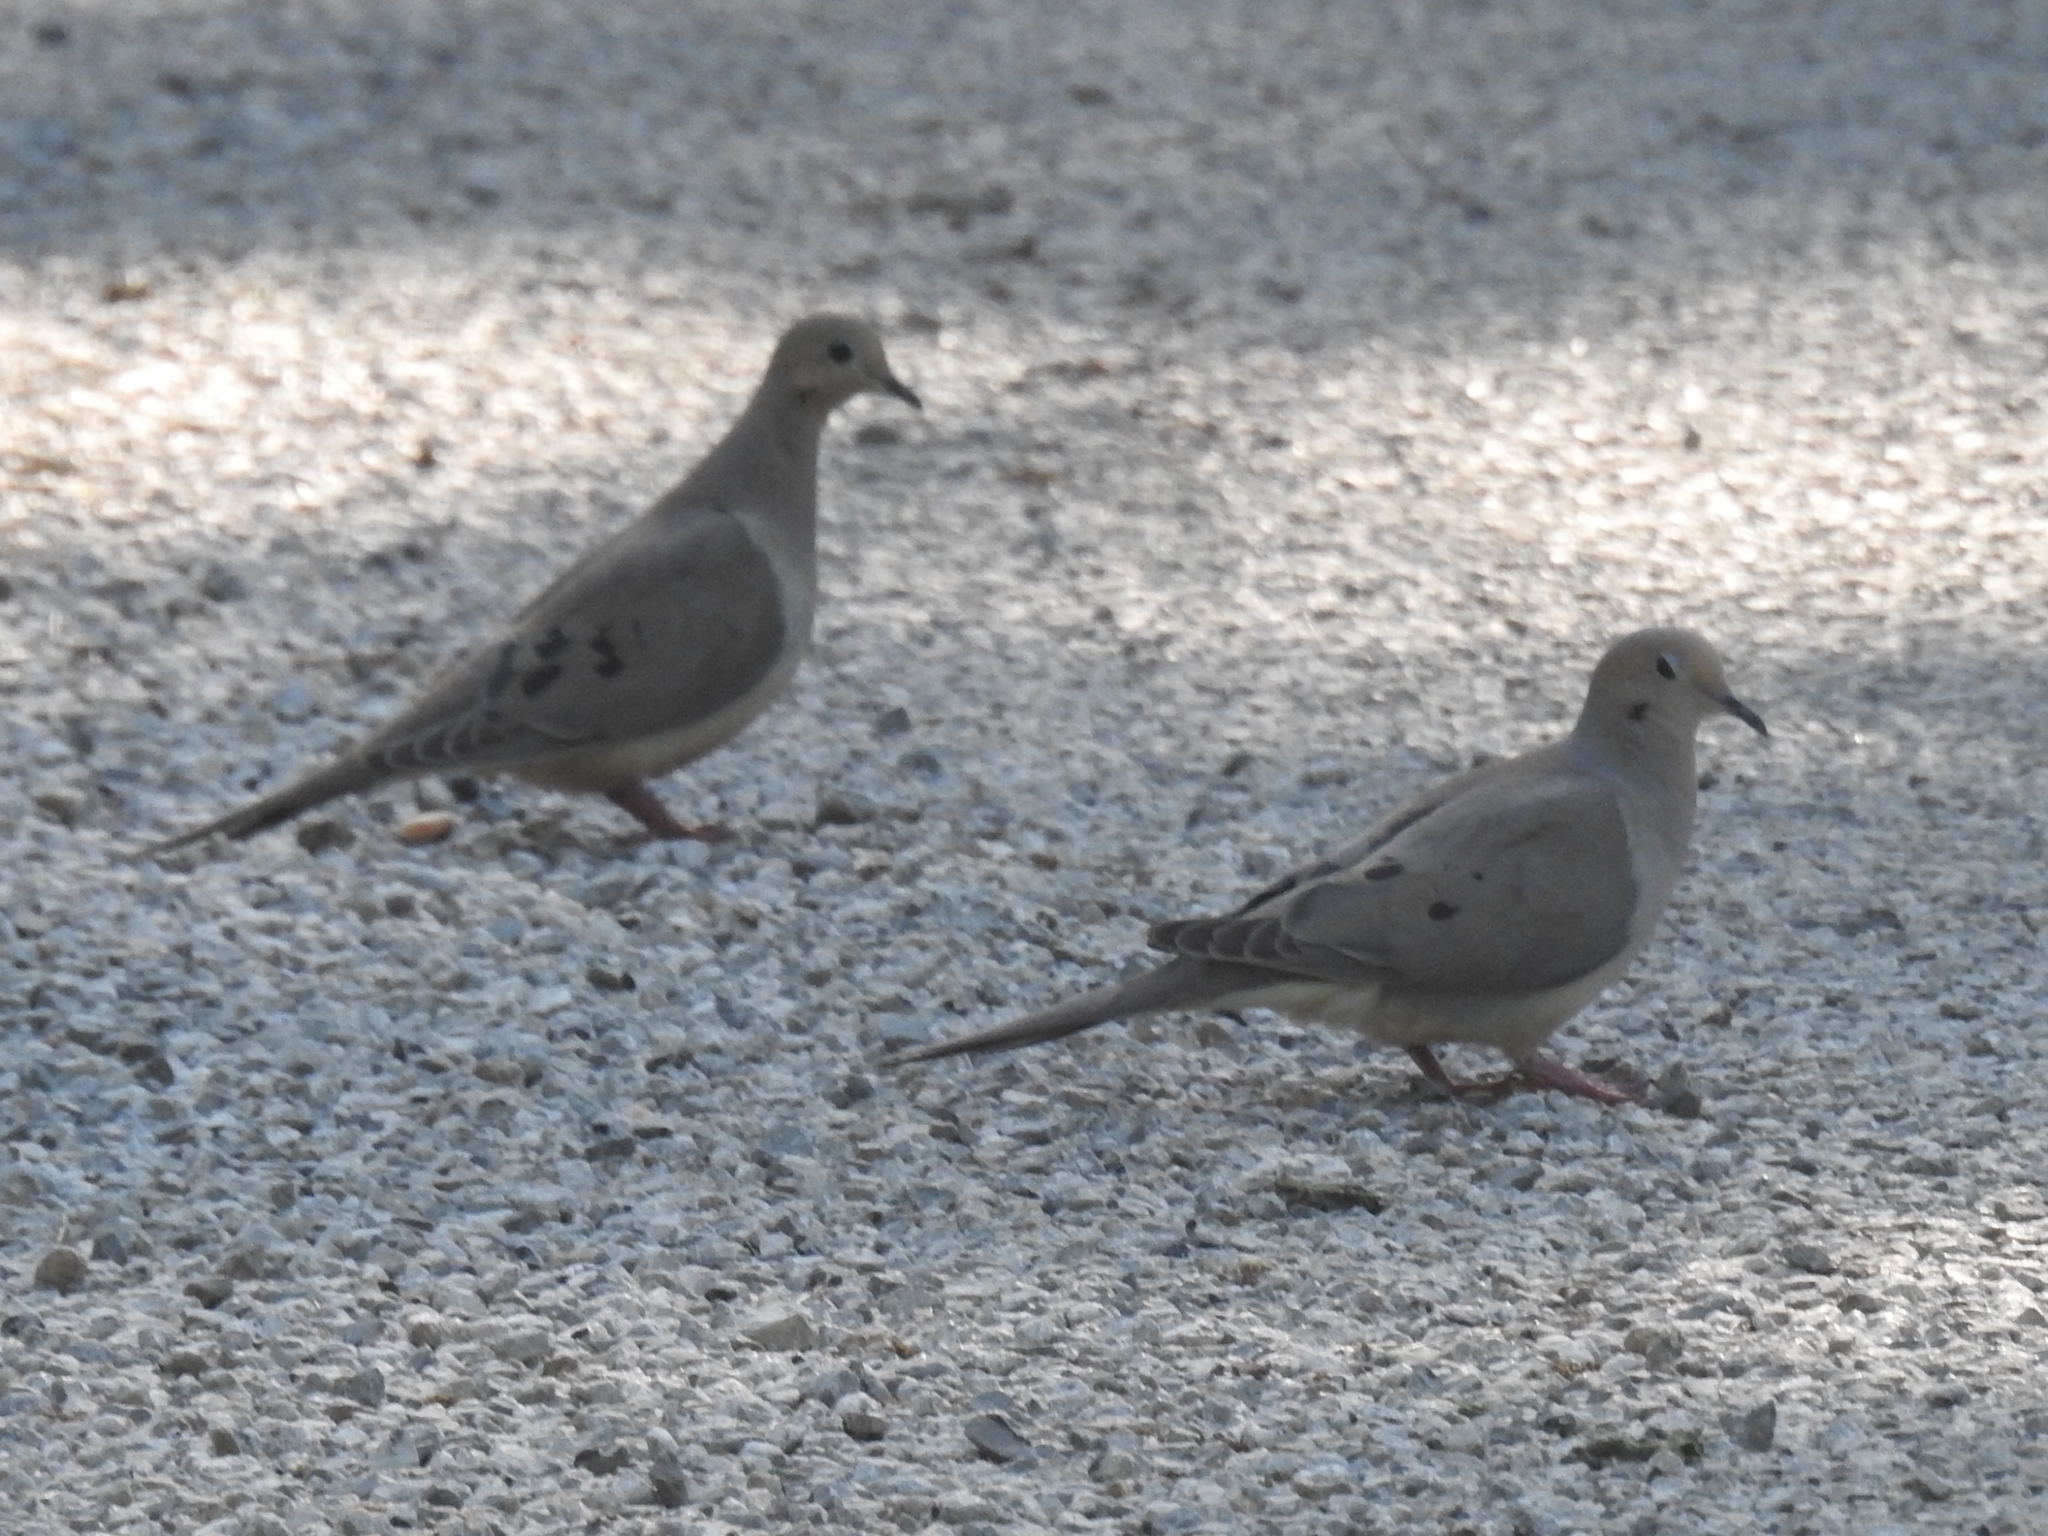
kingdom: Animalia
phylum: Chordata
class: Aves
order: Columbiformes
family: Columbidae
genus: Zenaida
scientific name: Zenaida macroura
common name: Mourning dove
